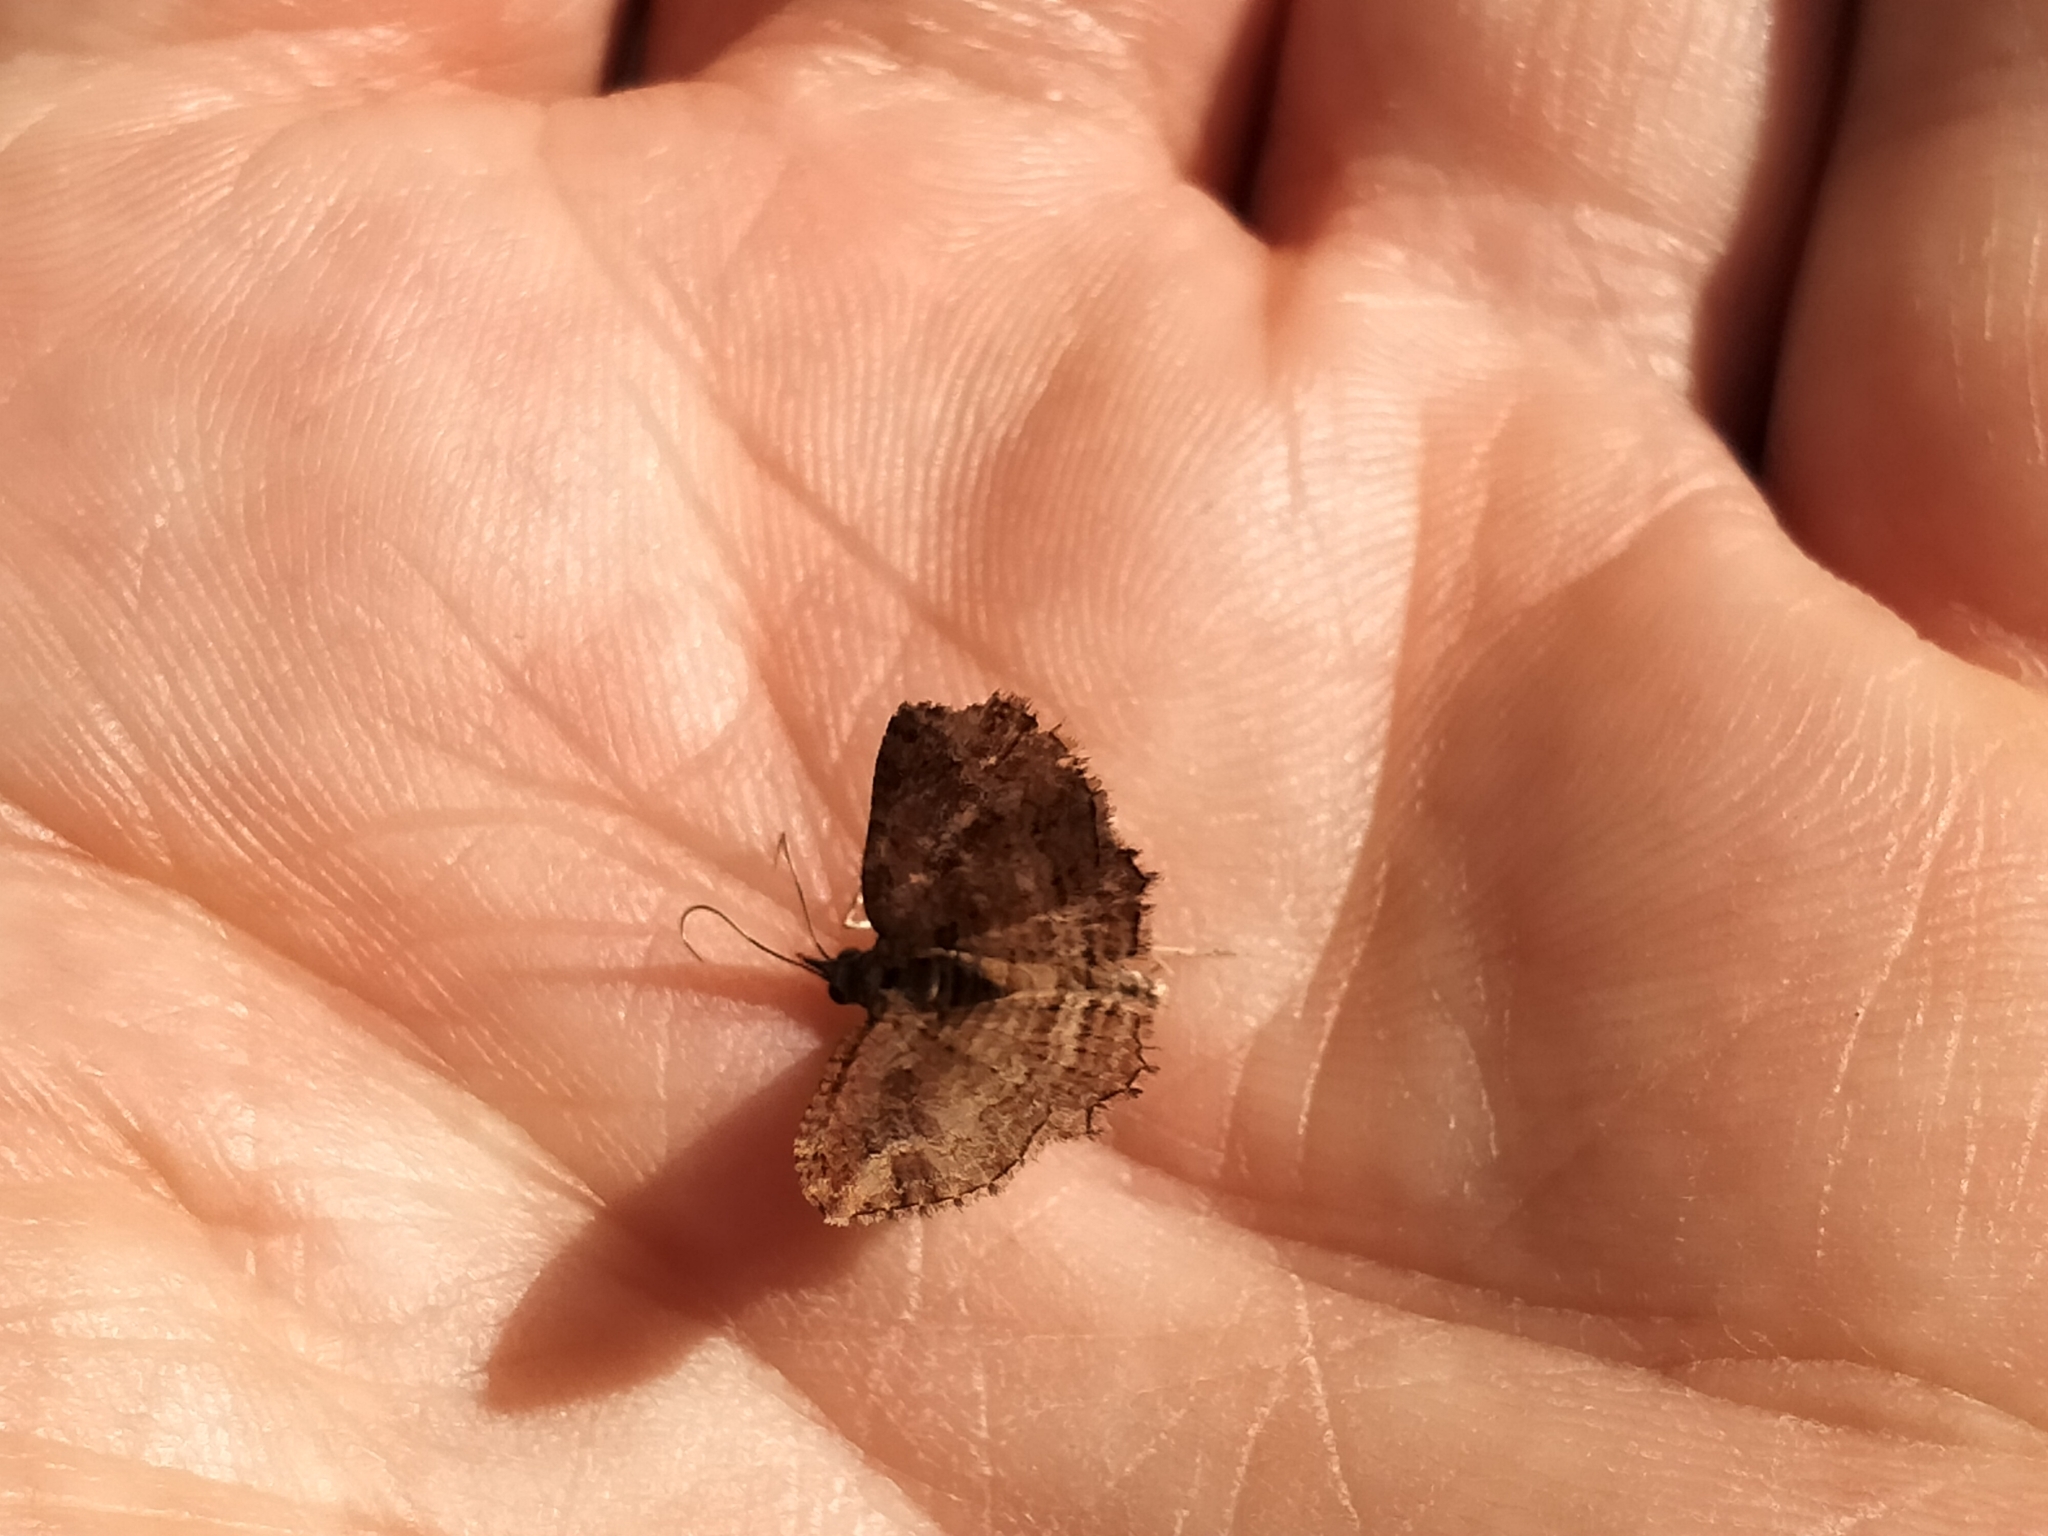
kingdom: Animalia
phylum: Arthropoda
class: Insecta
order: Lepidoptera
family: Geometridae
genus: Chloroclystis
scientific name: Chloroclystis filata
